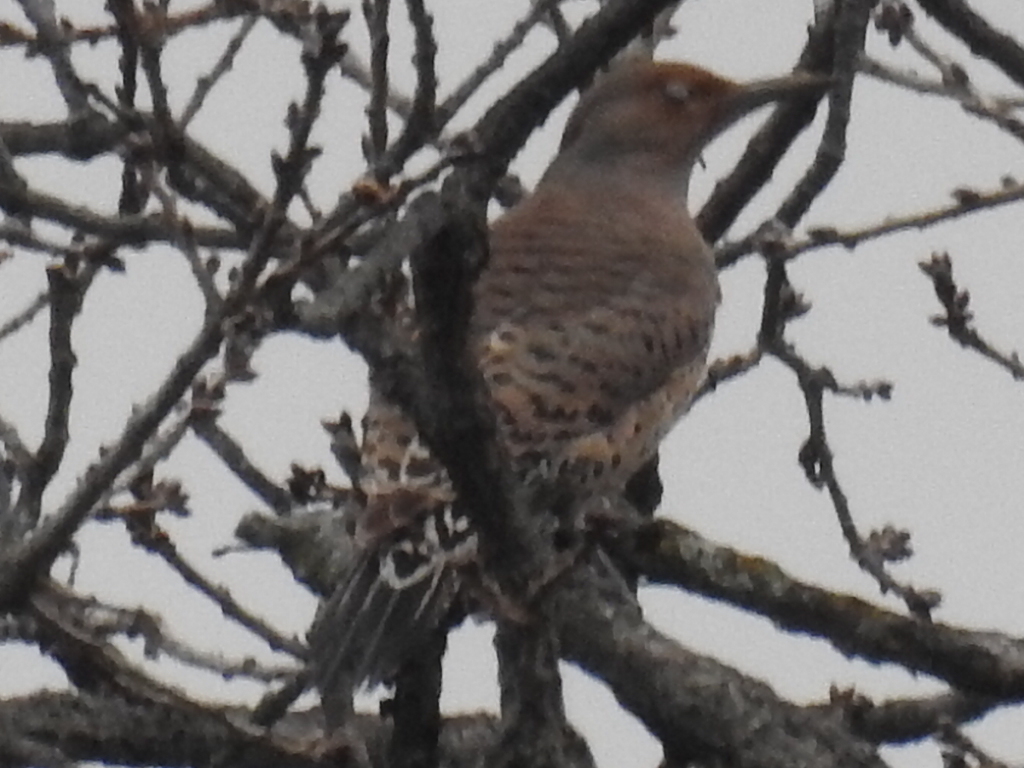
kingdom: Animalia
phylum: Chordata
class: Aves
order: Piciformes
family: Picidae
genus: Colaptes
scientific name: Colaptes auratus
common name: Northern flicker
